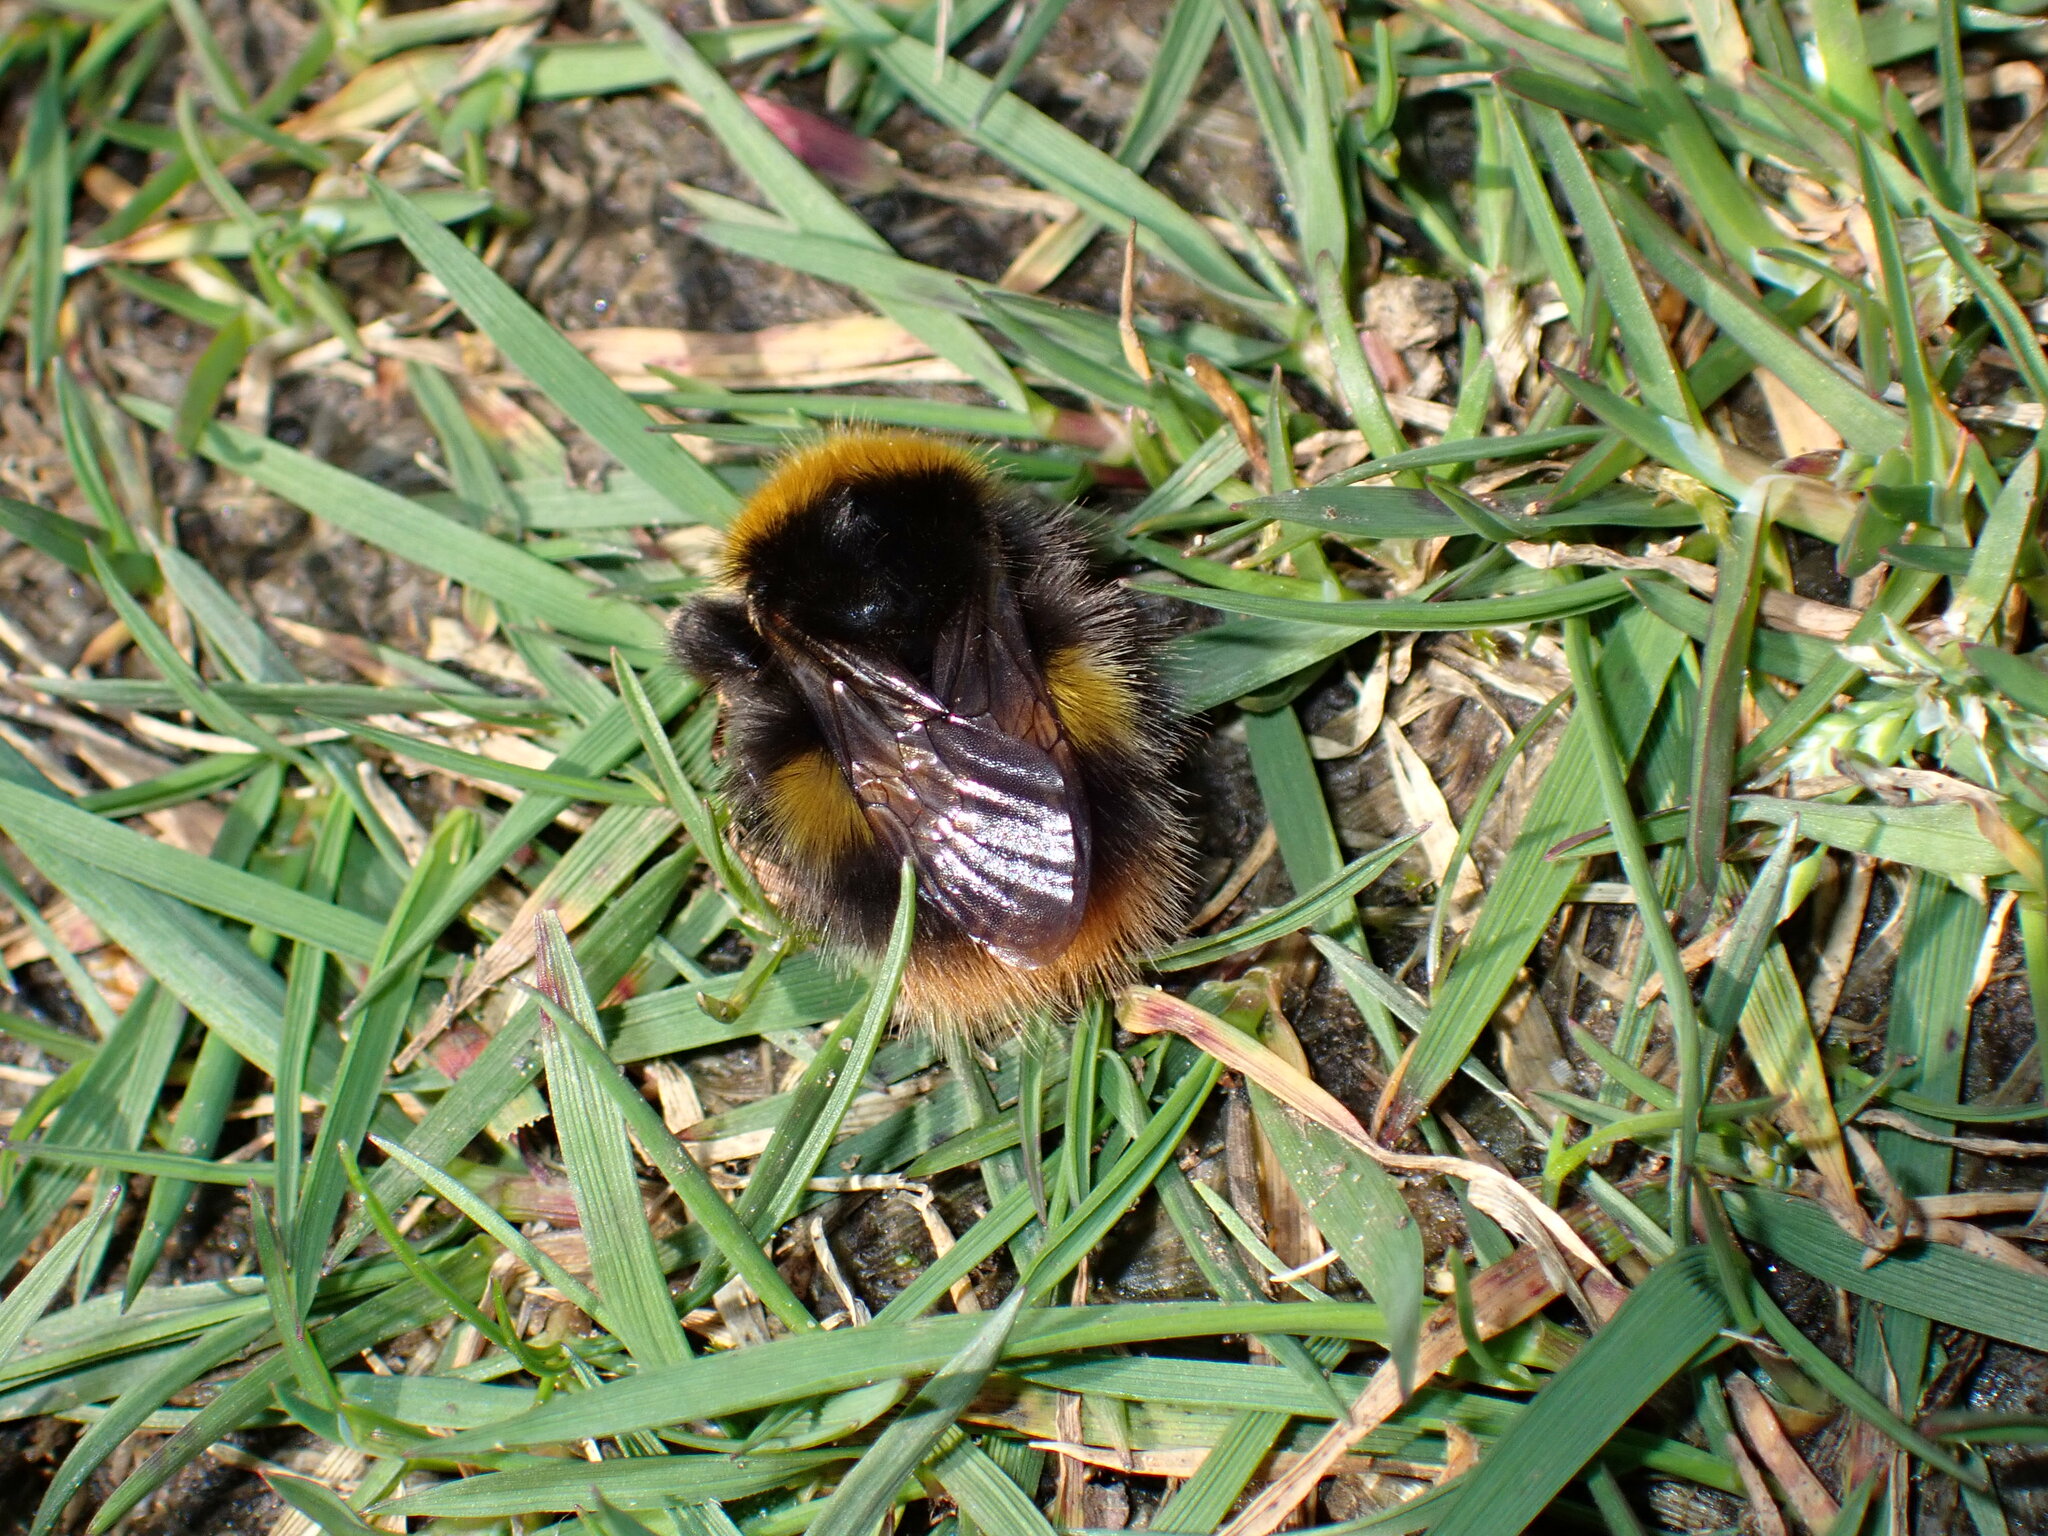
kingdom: Animalia
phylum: Arthropoda
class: Insecta
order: Hymenoptera
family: Apidae
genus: Bombus
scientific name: Bombus pratorum
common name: Early humble-bee
